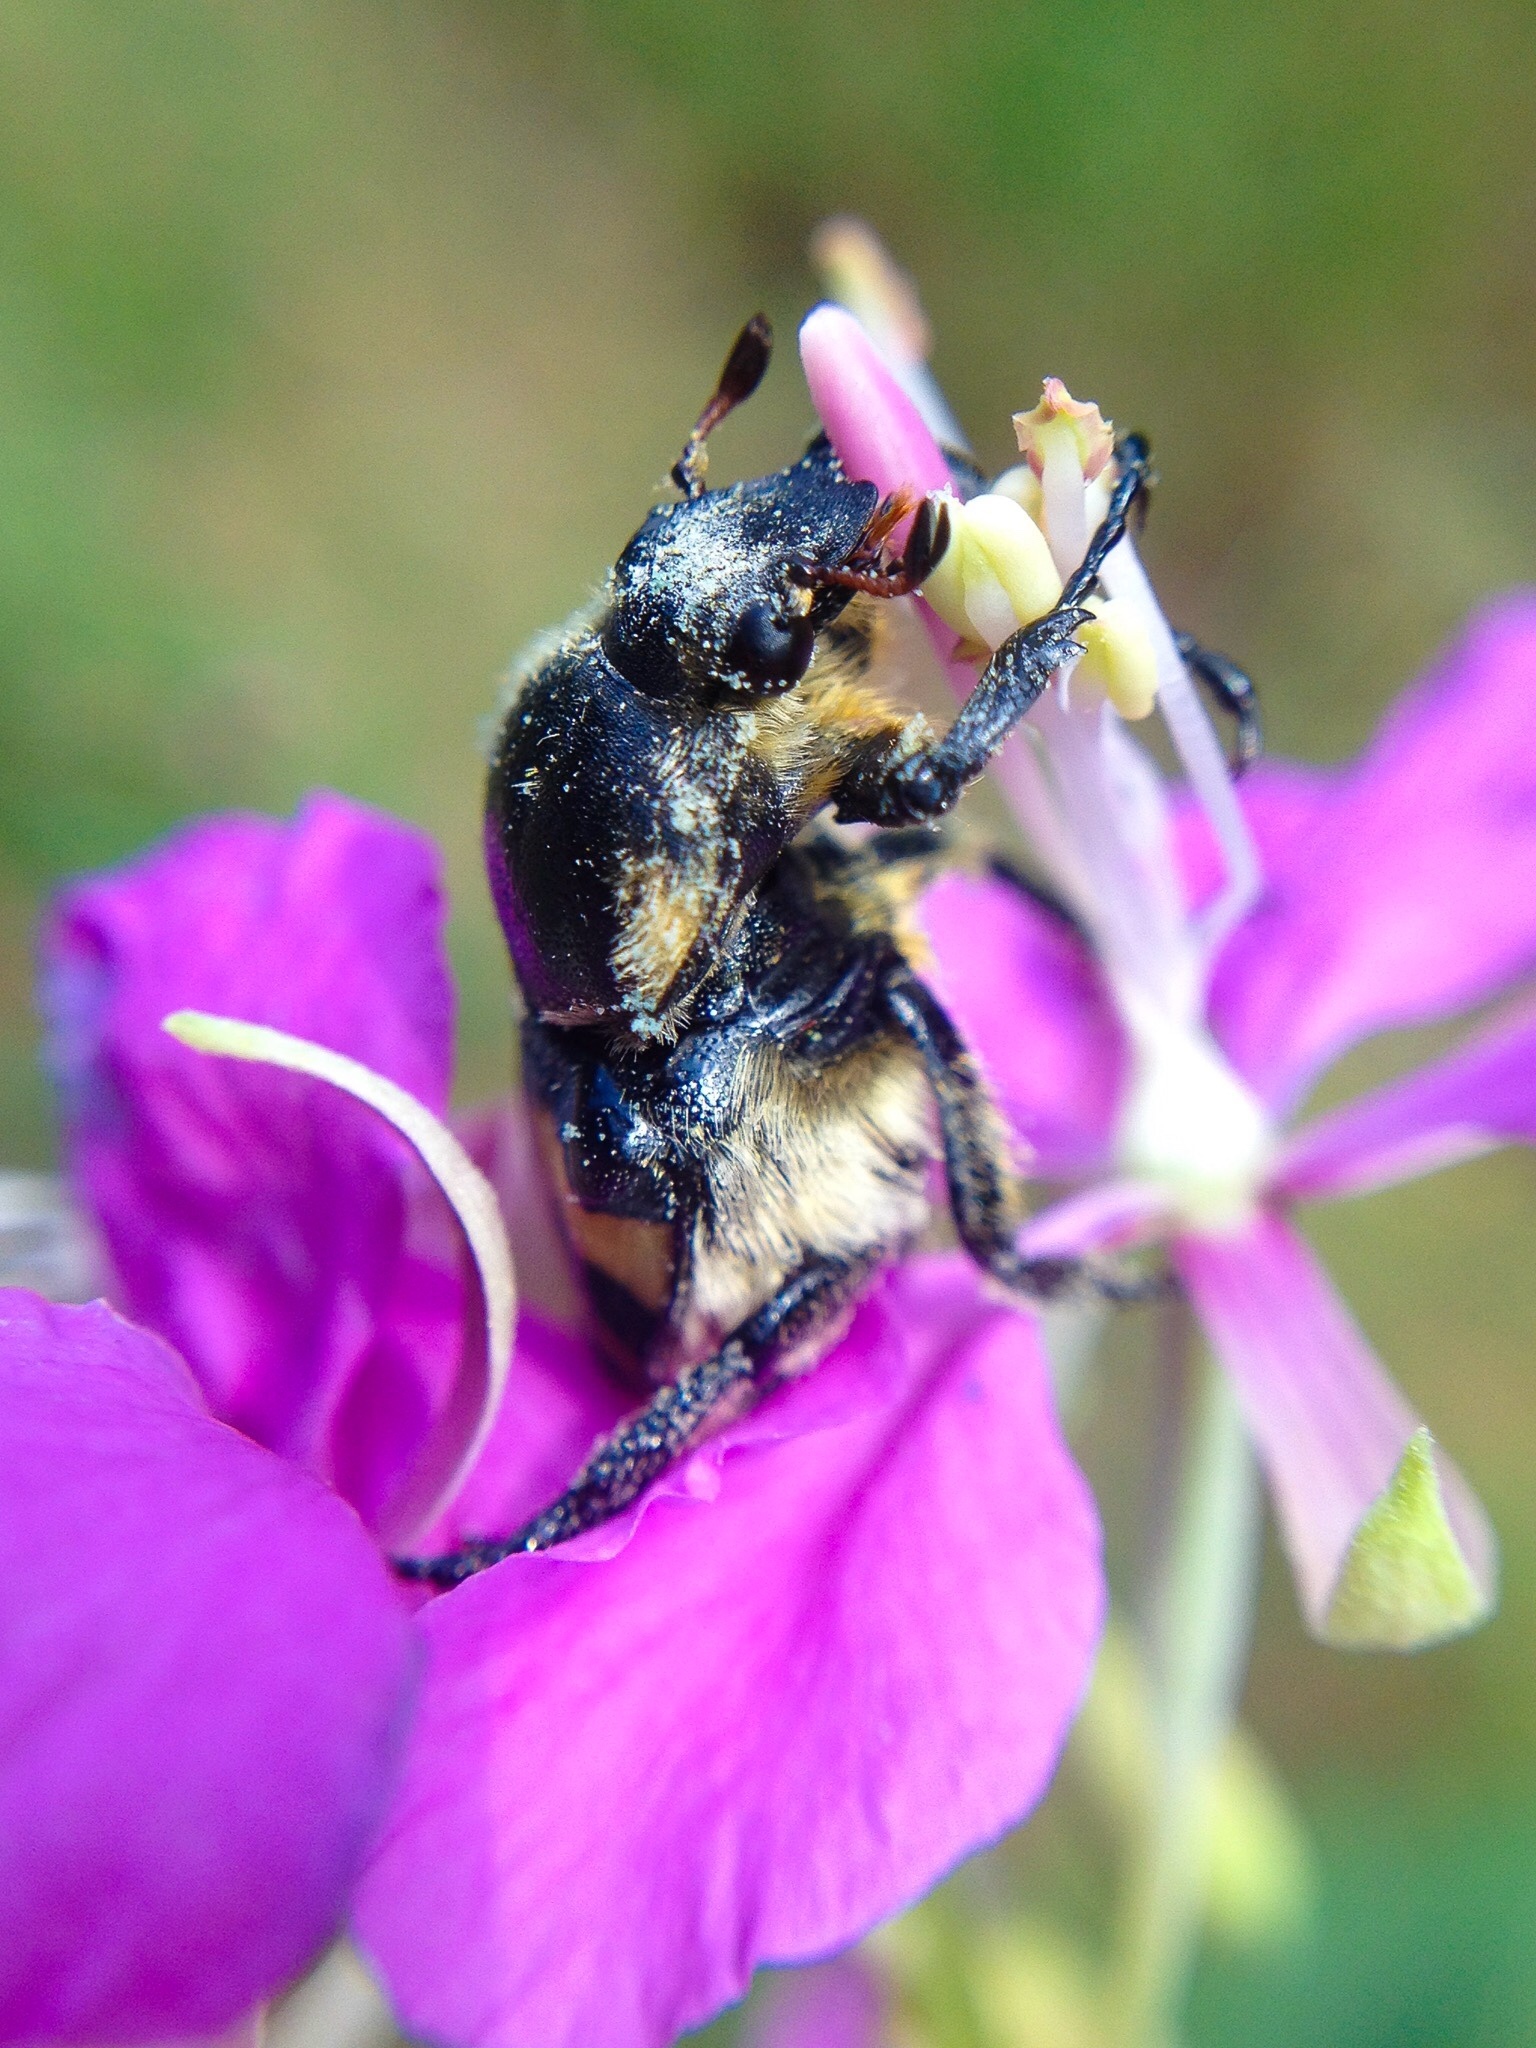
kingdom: Animalia
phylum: Arthropoda
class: Insecta
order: Coleoptera
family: Scarabaeidae
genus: Trichius
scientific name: Trichius fasciatus
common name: Bee beetle
